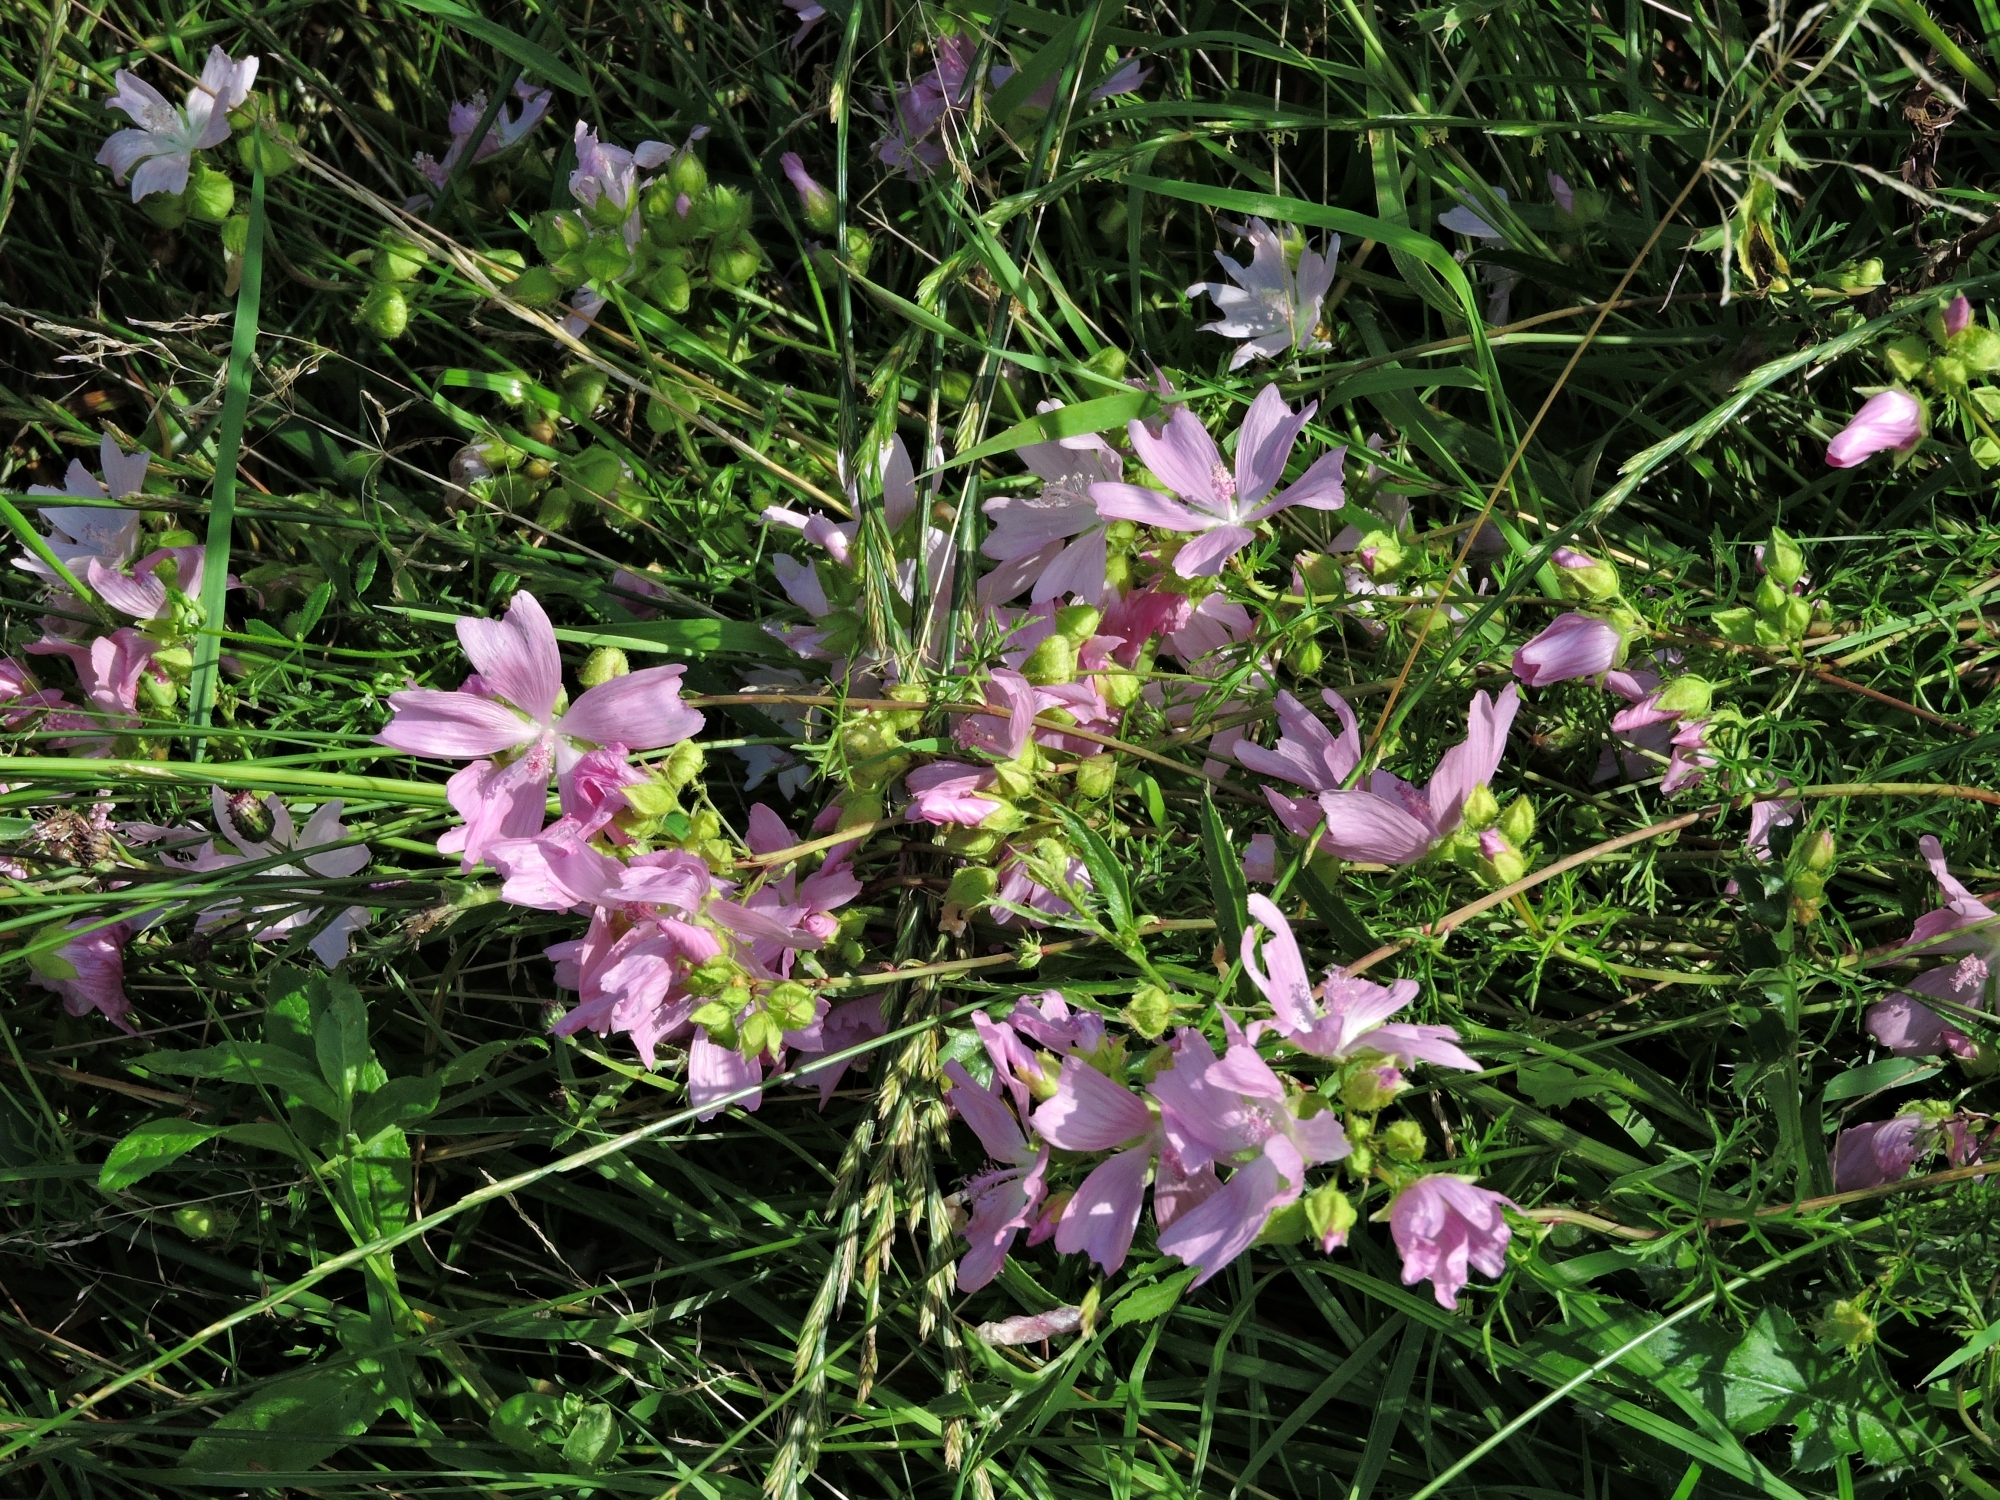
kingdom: Plantae
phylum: Tracheophyta
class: Magnoliopsida
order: Malvales
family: Malvaceae
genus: Malva
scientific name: Malva moschata
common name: Musk mallow
